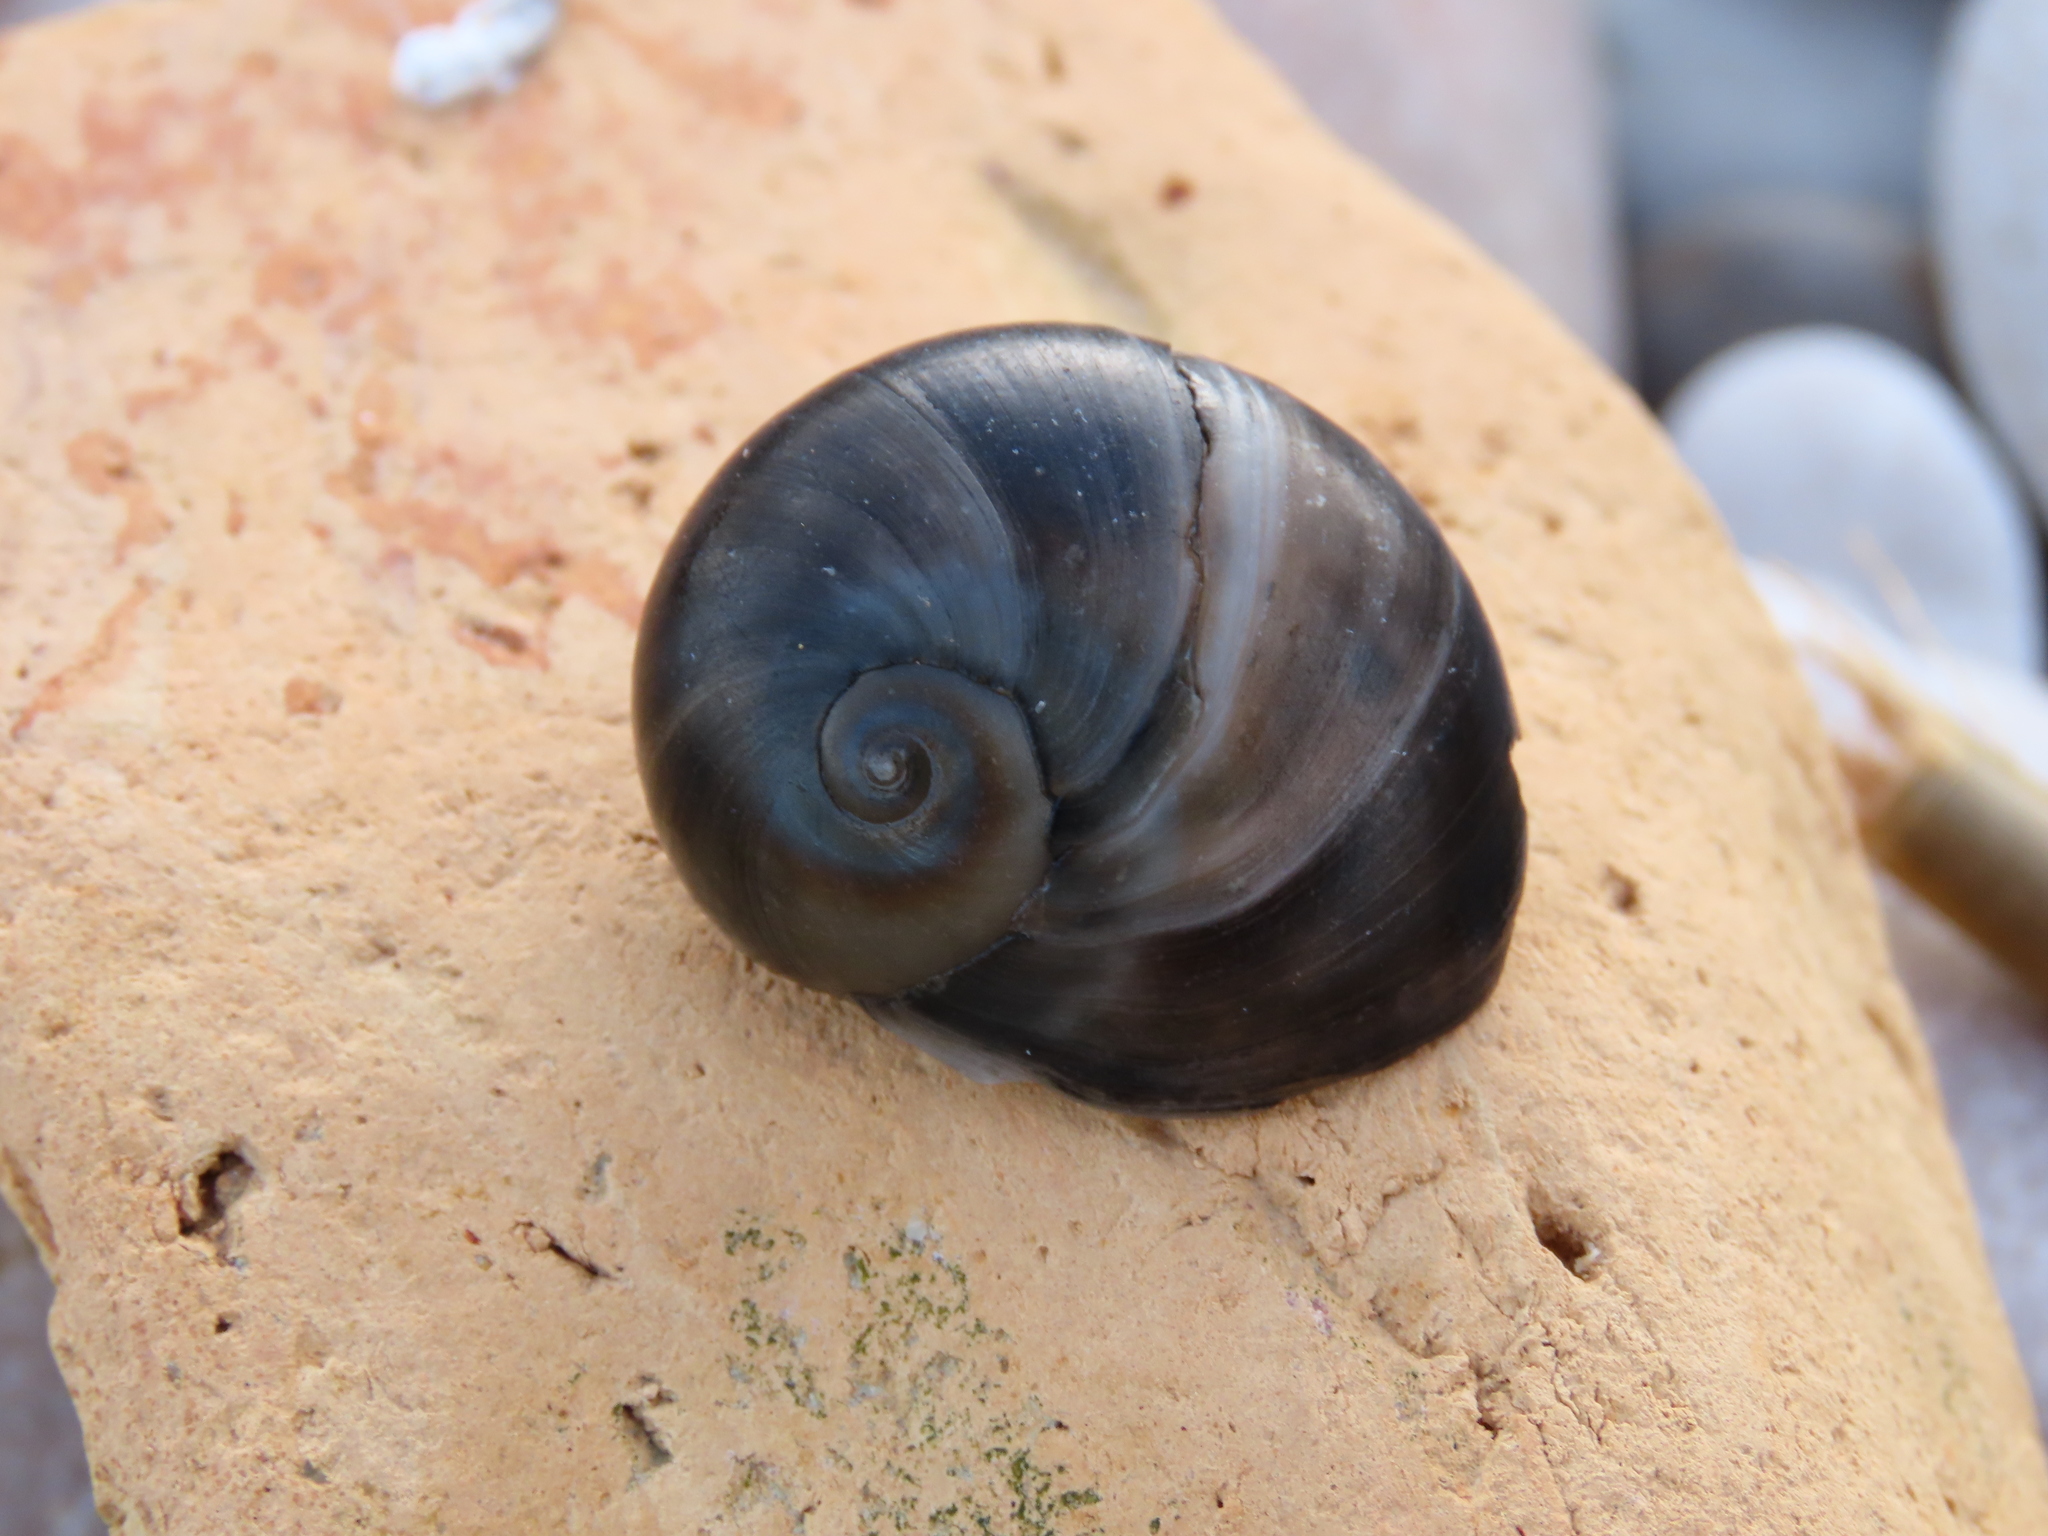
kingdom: Animalia
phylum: Mollusca
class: Gastropoda
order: Littorinimorpha
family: Naticidae
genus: Neverita
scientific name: Neverita josephinia
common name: Josephine's moonsnail
